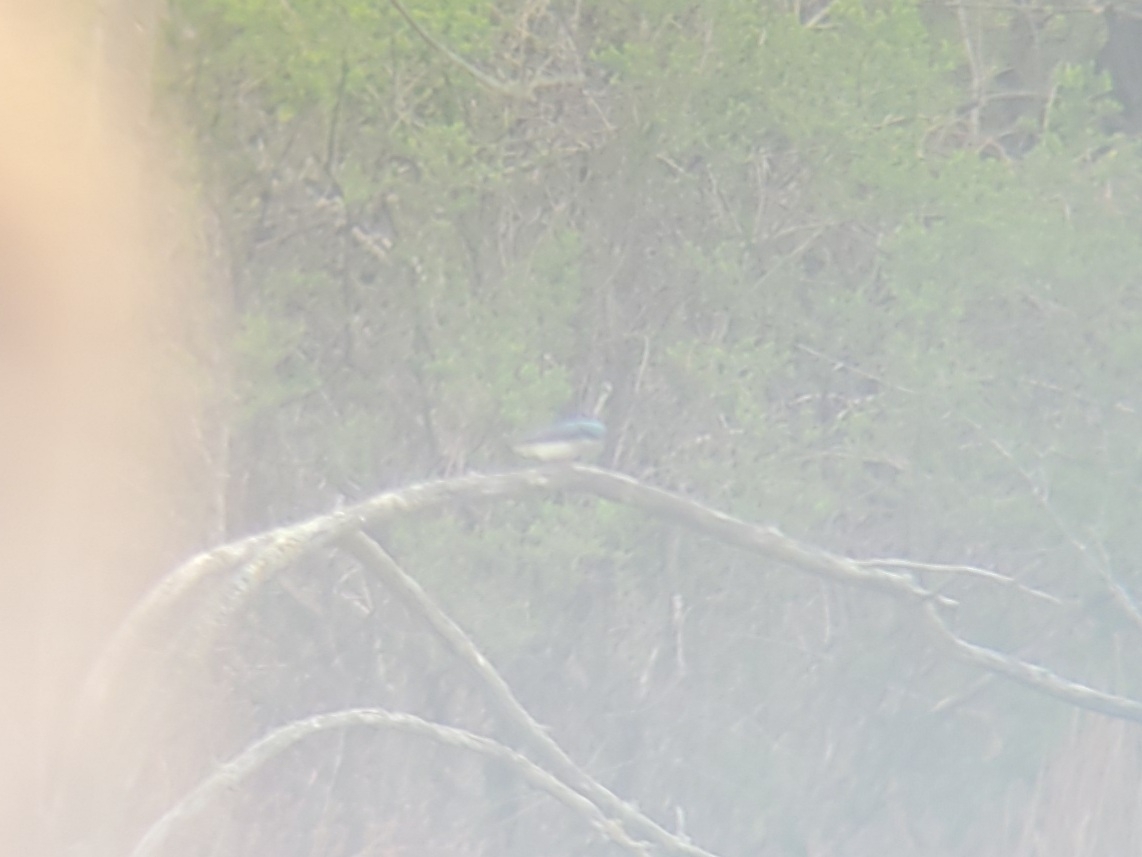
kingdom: Animalia
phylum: Chordata
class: Aves
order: Passeriformes
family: Hirundinidae
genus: Tachycineta
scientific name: Tachycineta bicolor
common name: Tree swallow
